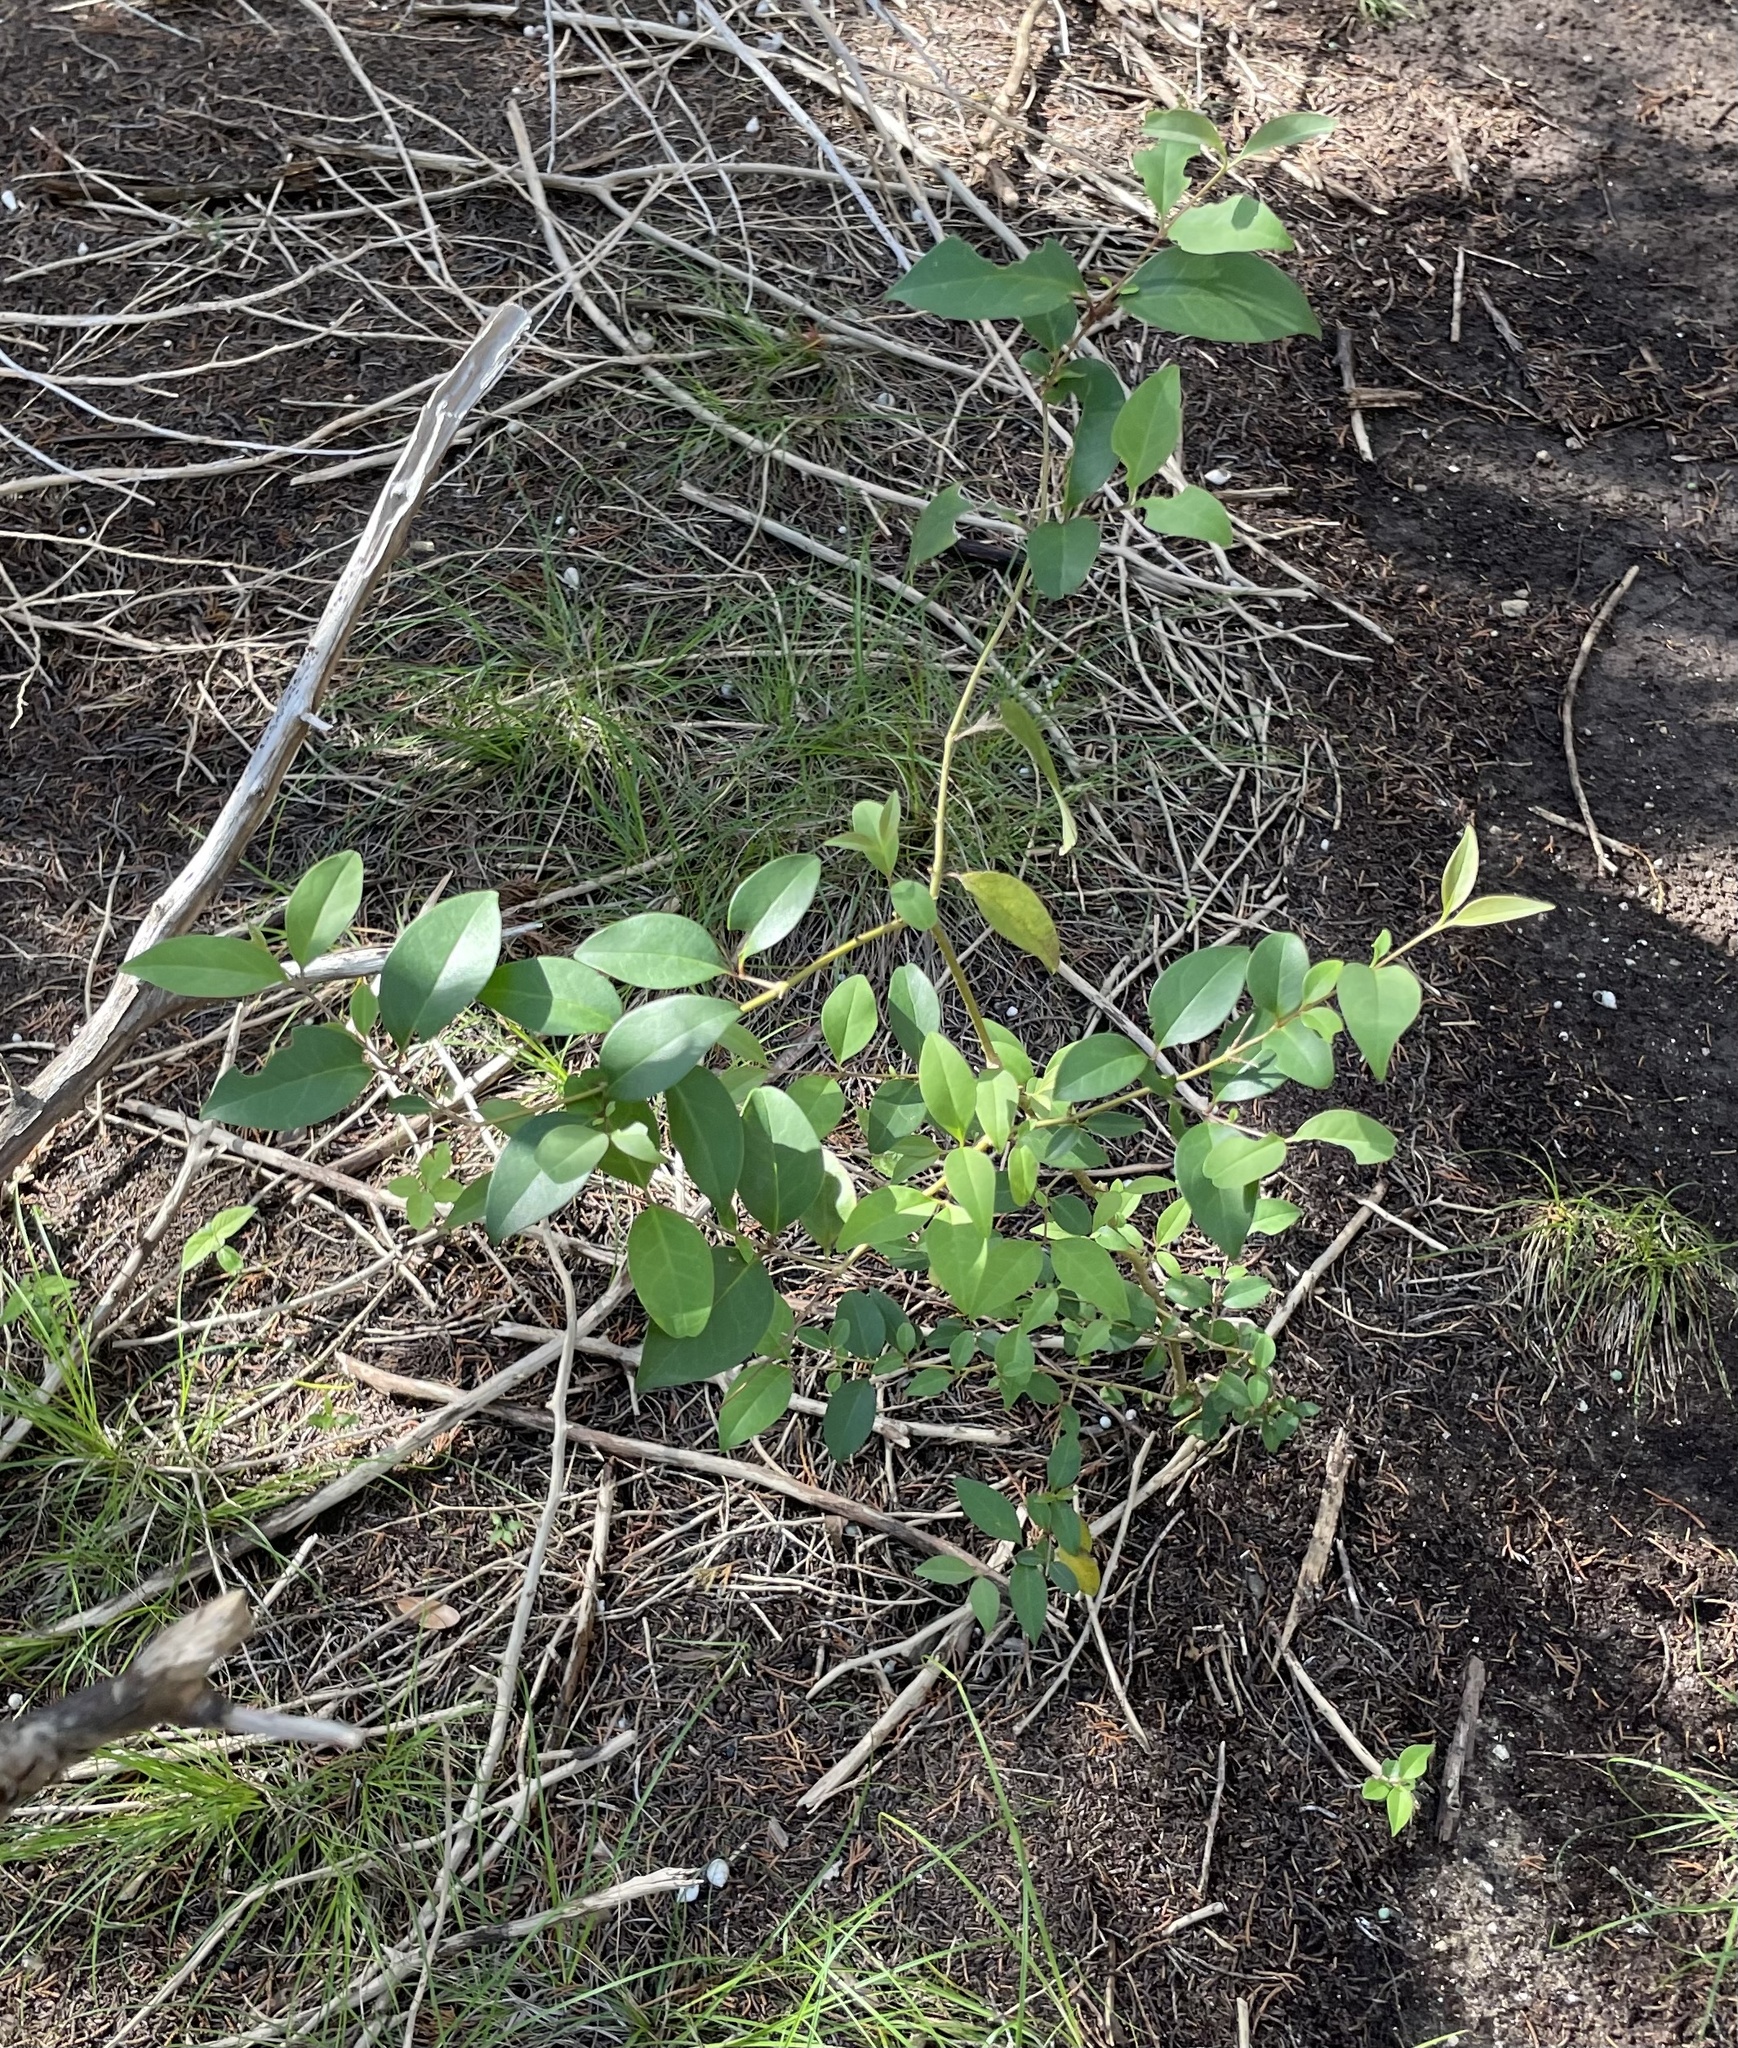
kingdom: Plantae
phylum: Tracheophyta
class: Magnoliopsida
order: Lamiales
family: Oleaceae
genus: Ligustrum
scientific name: Ligustrum lucidum
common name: Glossy privet
